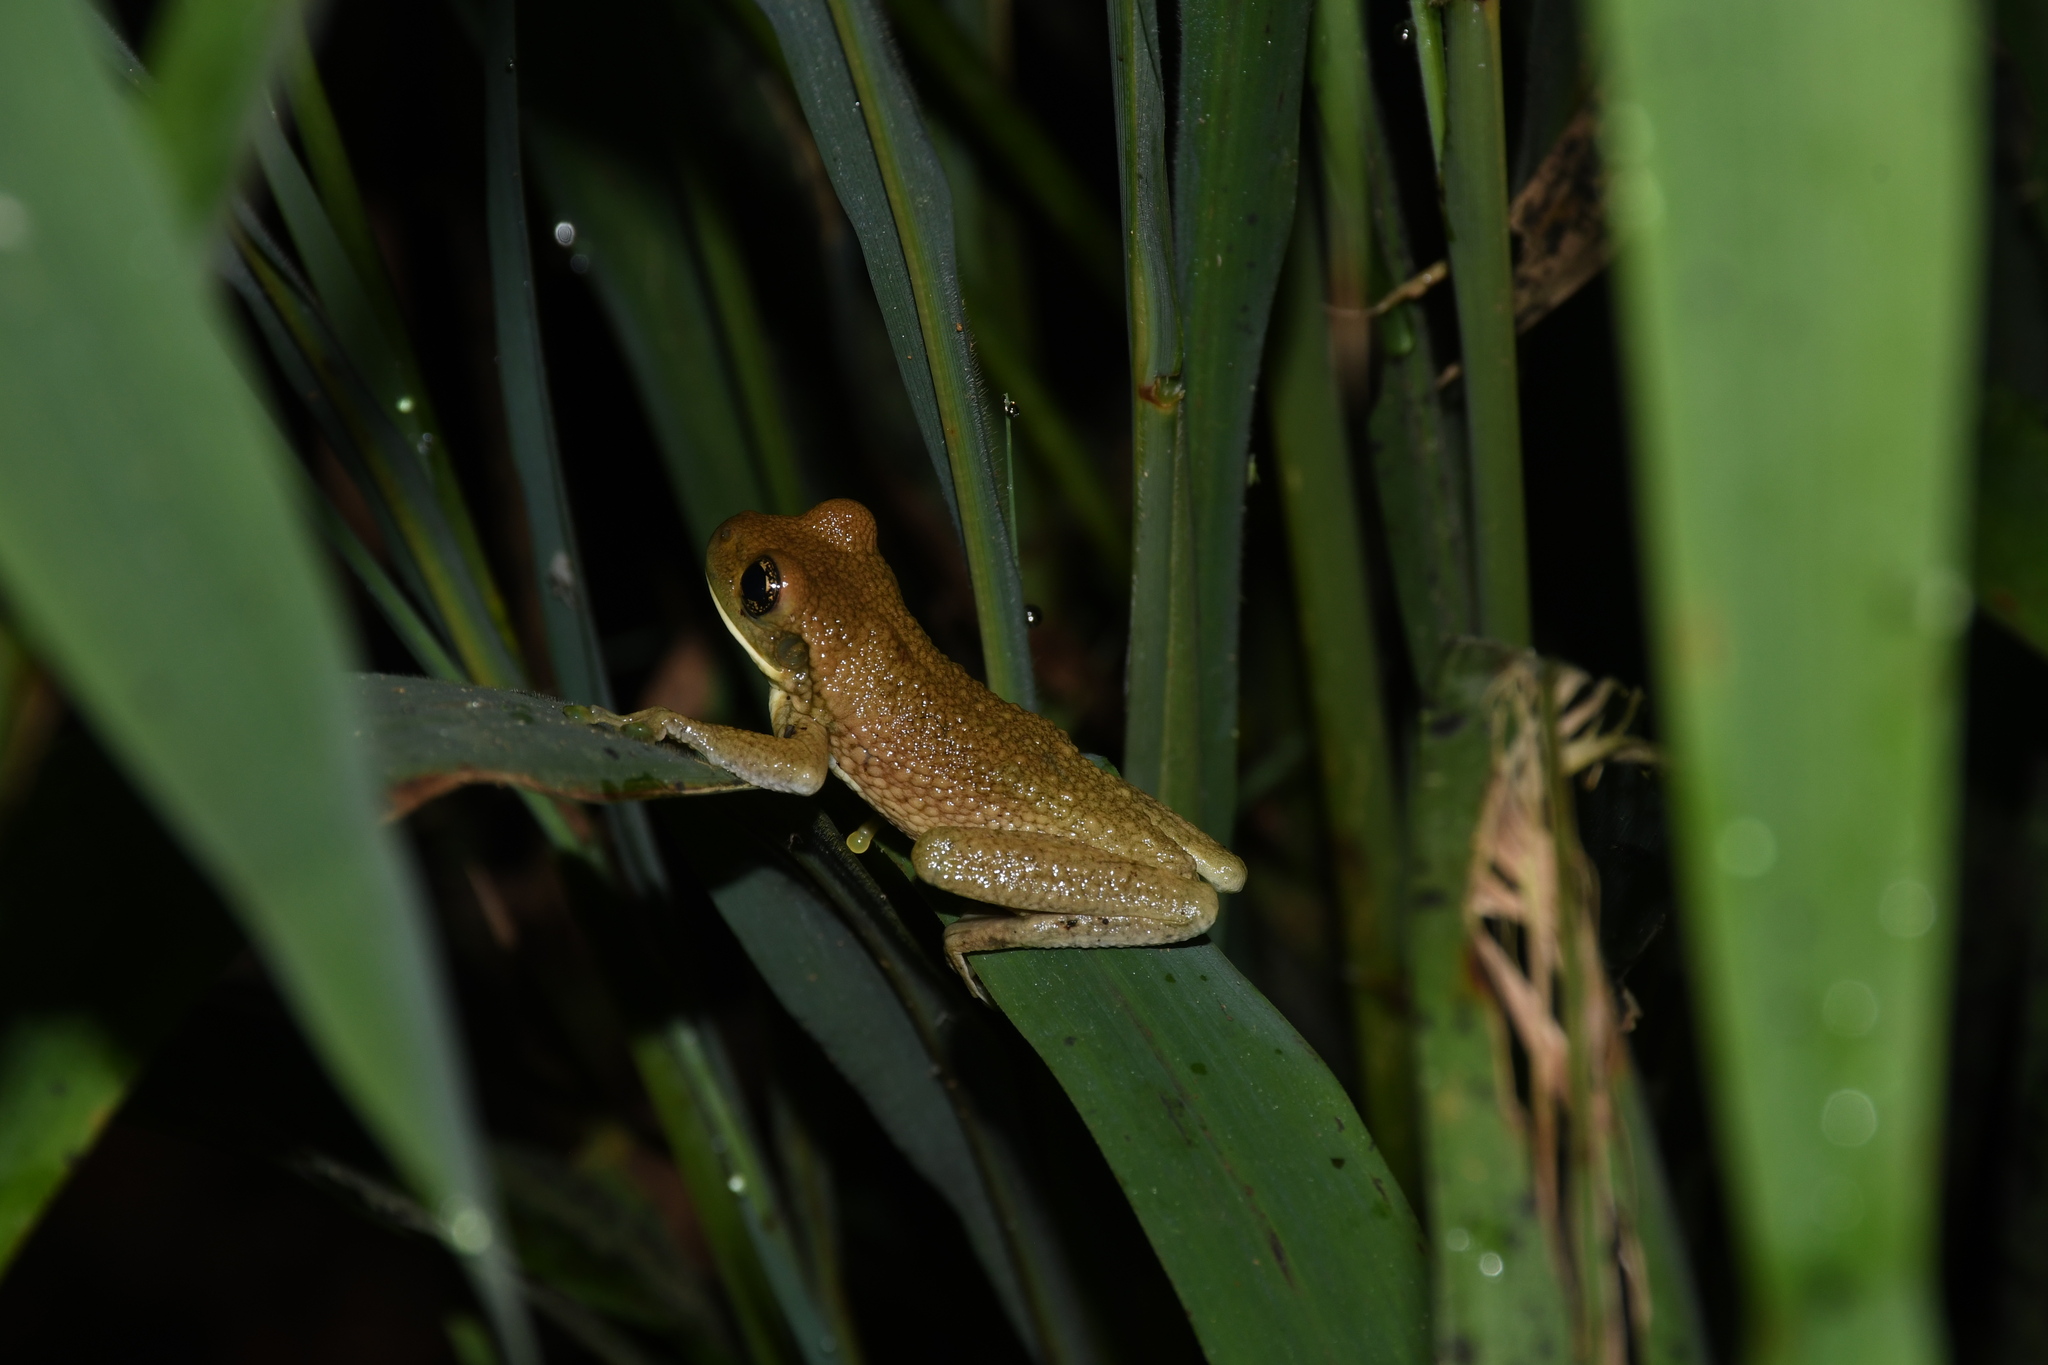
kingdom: Animalia
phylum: Chordata
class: Amphibia
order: Anura
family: Hylidae
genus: Trachycephalus
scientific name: Trachycephalus typhonius
